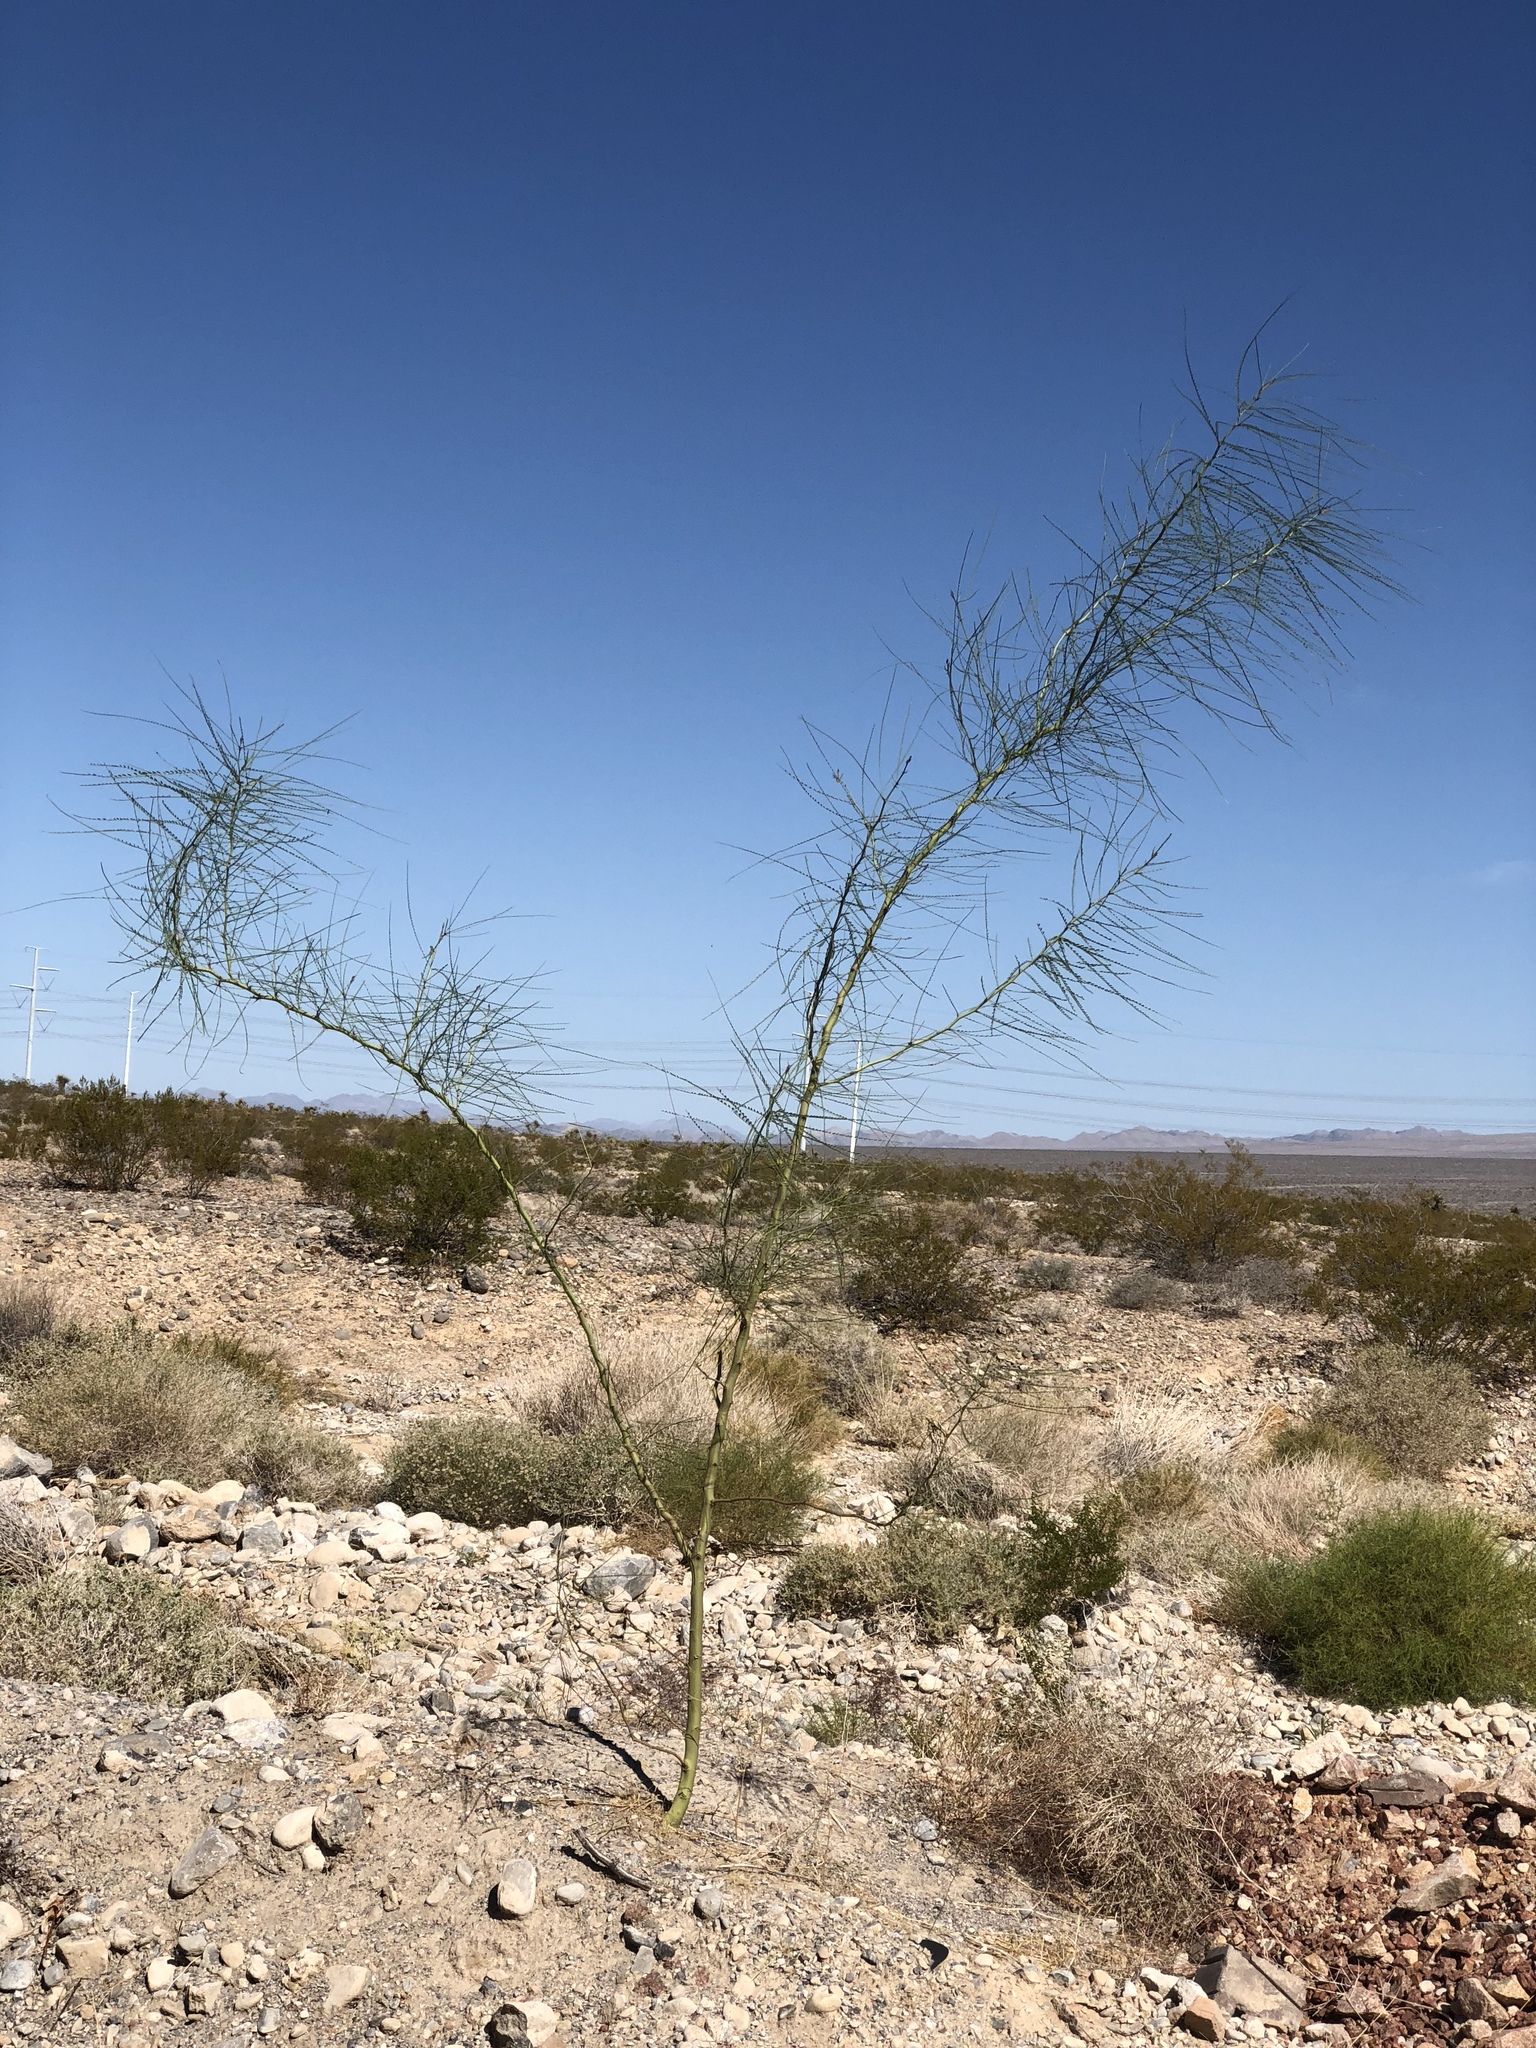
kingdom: Plantae
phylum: Tracheophyta
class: Magnoliopsida
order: Fabales
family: Fabaceae
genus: Parkinsonia
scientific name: Parkinsonia aculeata
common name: Jerusalem thorn
